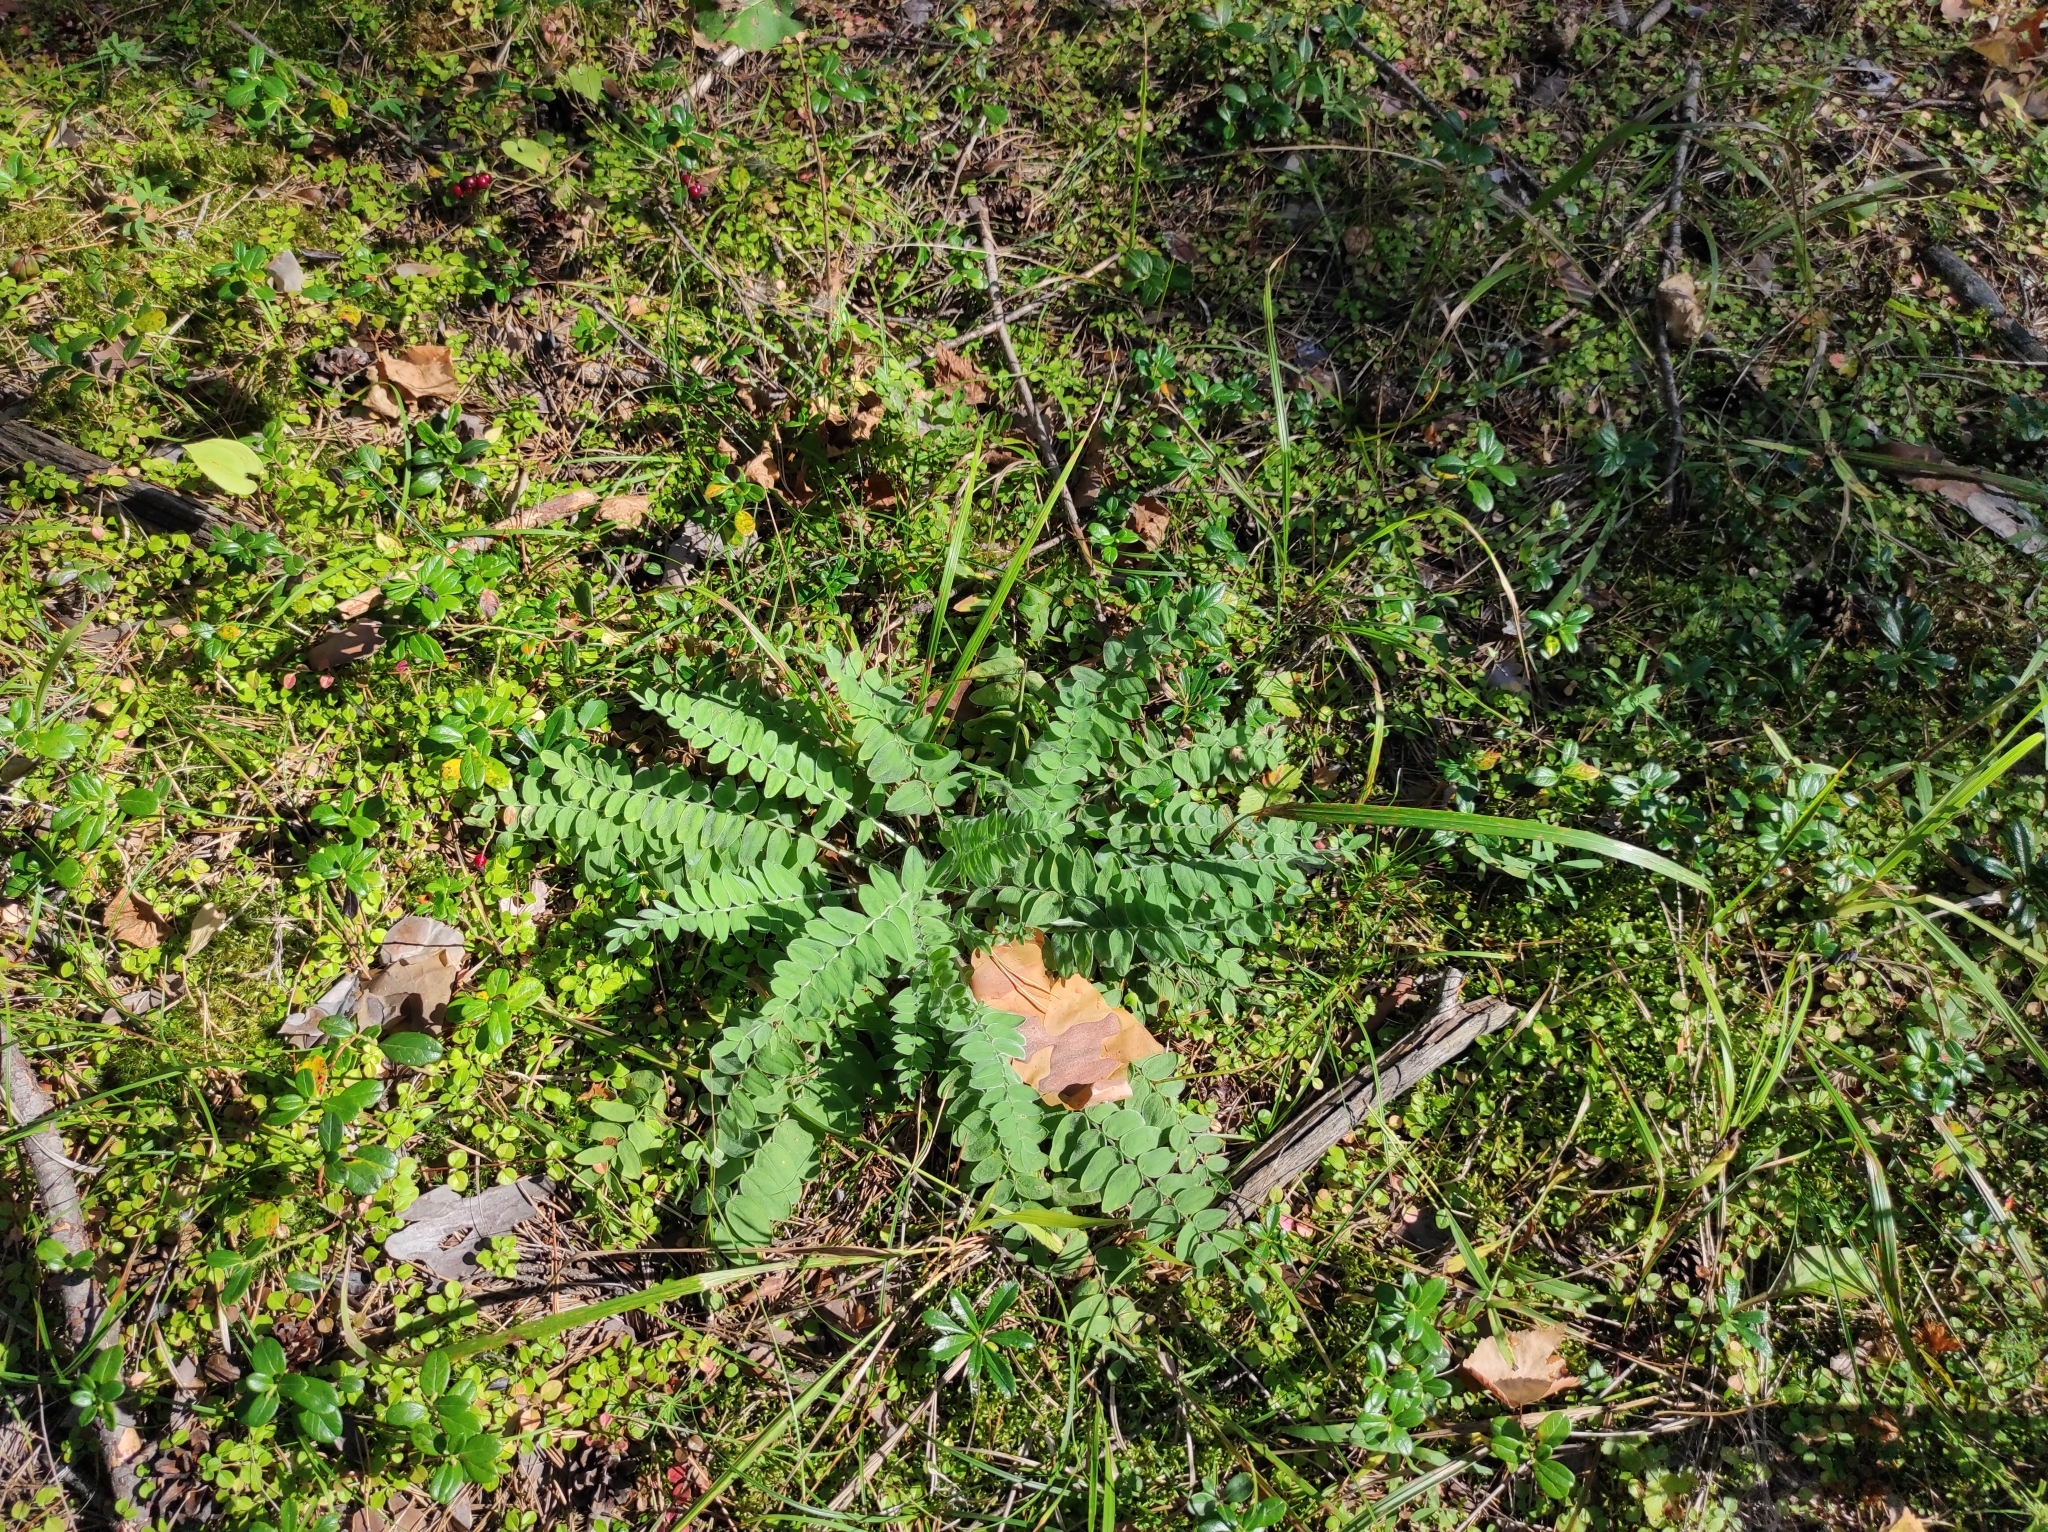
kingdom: Plantae
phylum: Tracheophyta
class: Magnoliopsida
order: Fabales
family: Fabaceae
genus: Oxytropis
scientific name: Oxytropis campanulata
